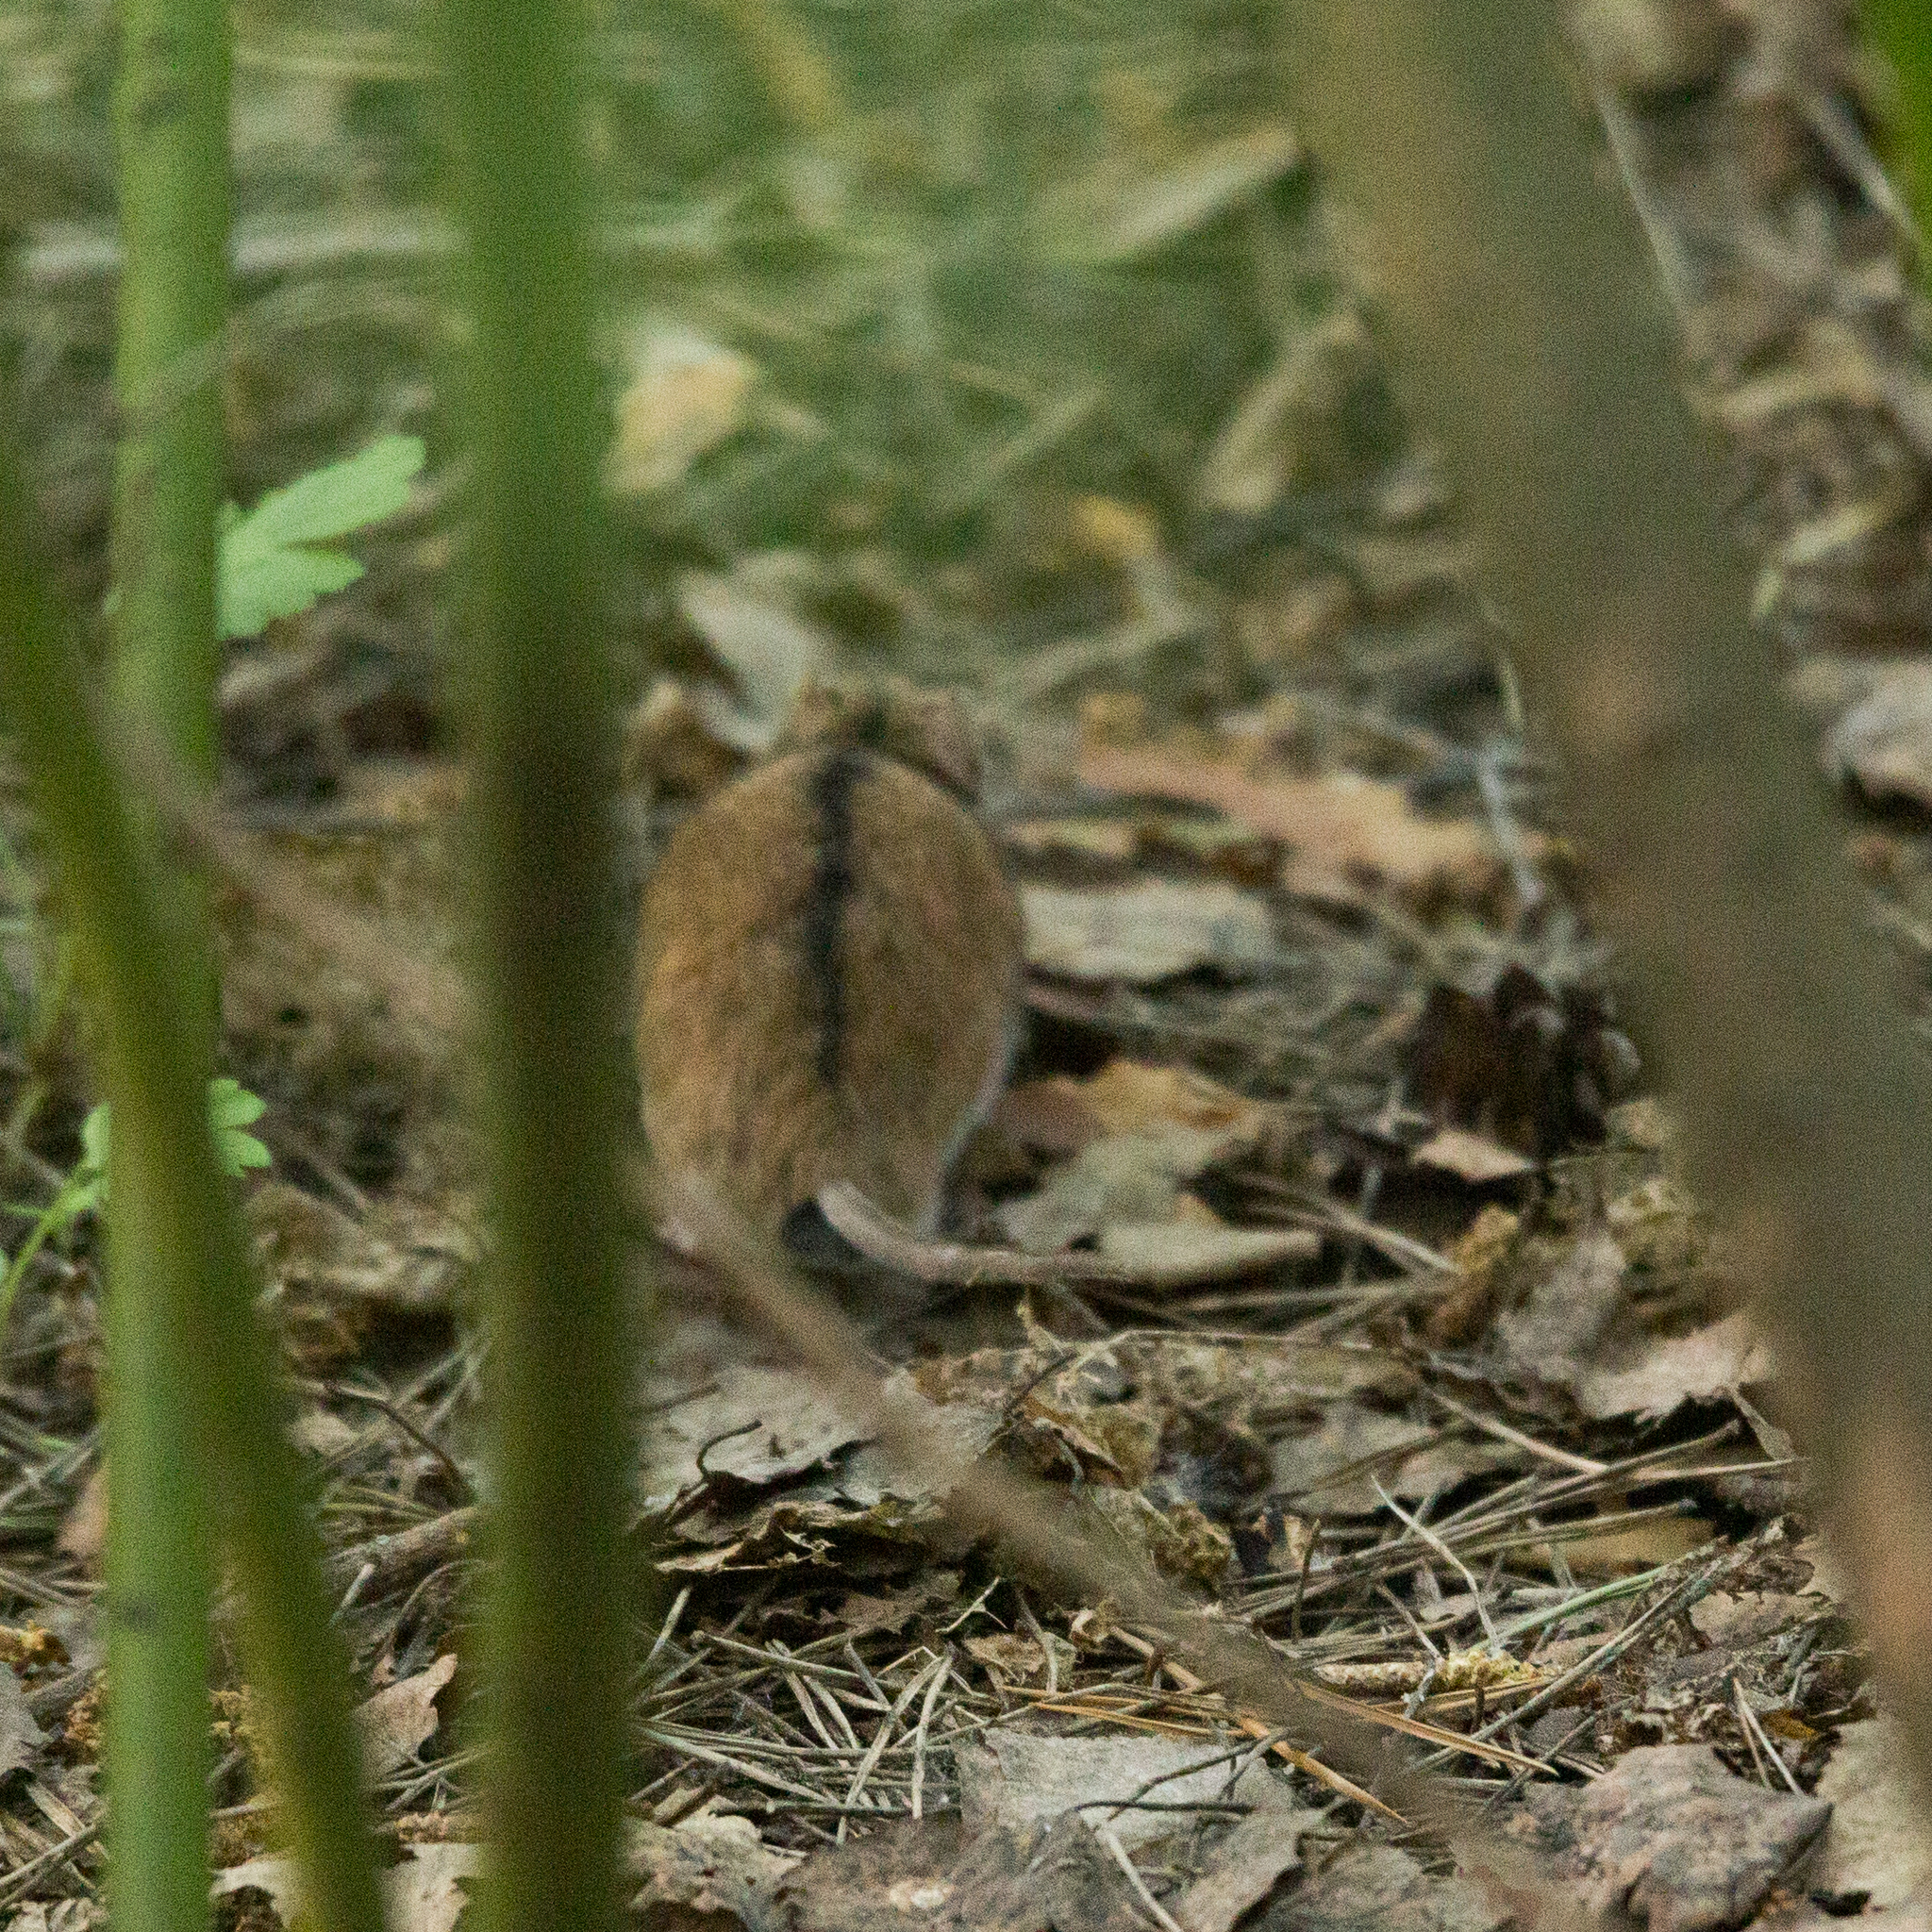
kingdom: Animalia
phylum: Chordata
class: Mammalia
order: Rodentia
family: Muridae
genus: Apodemus
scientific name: Apodemus agrarius
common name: Striped field mouse
